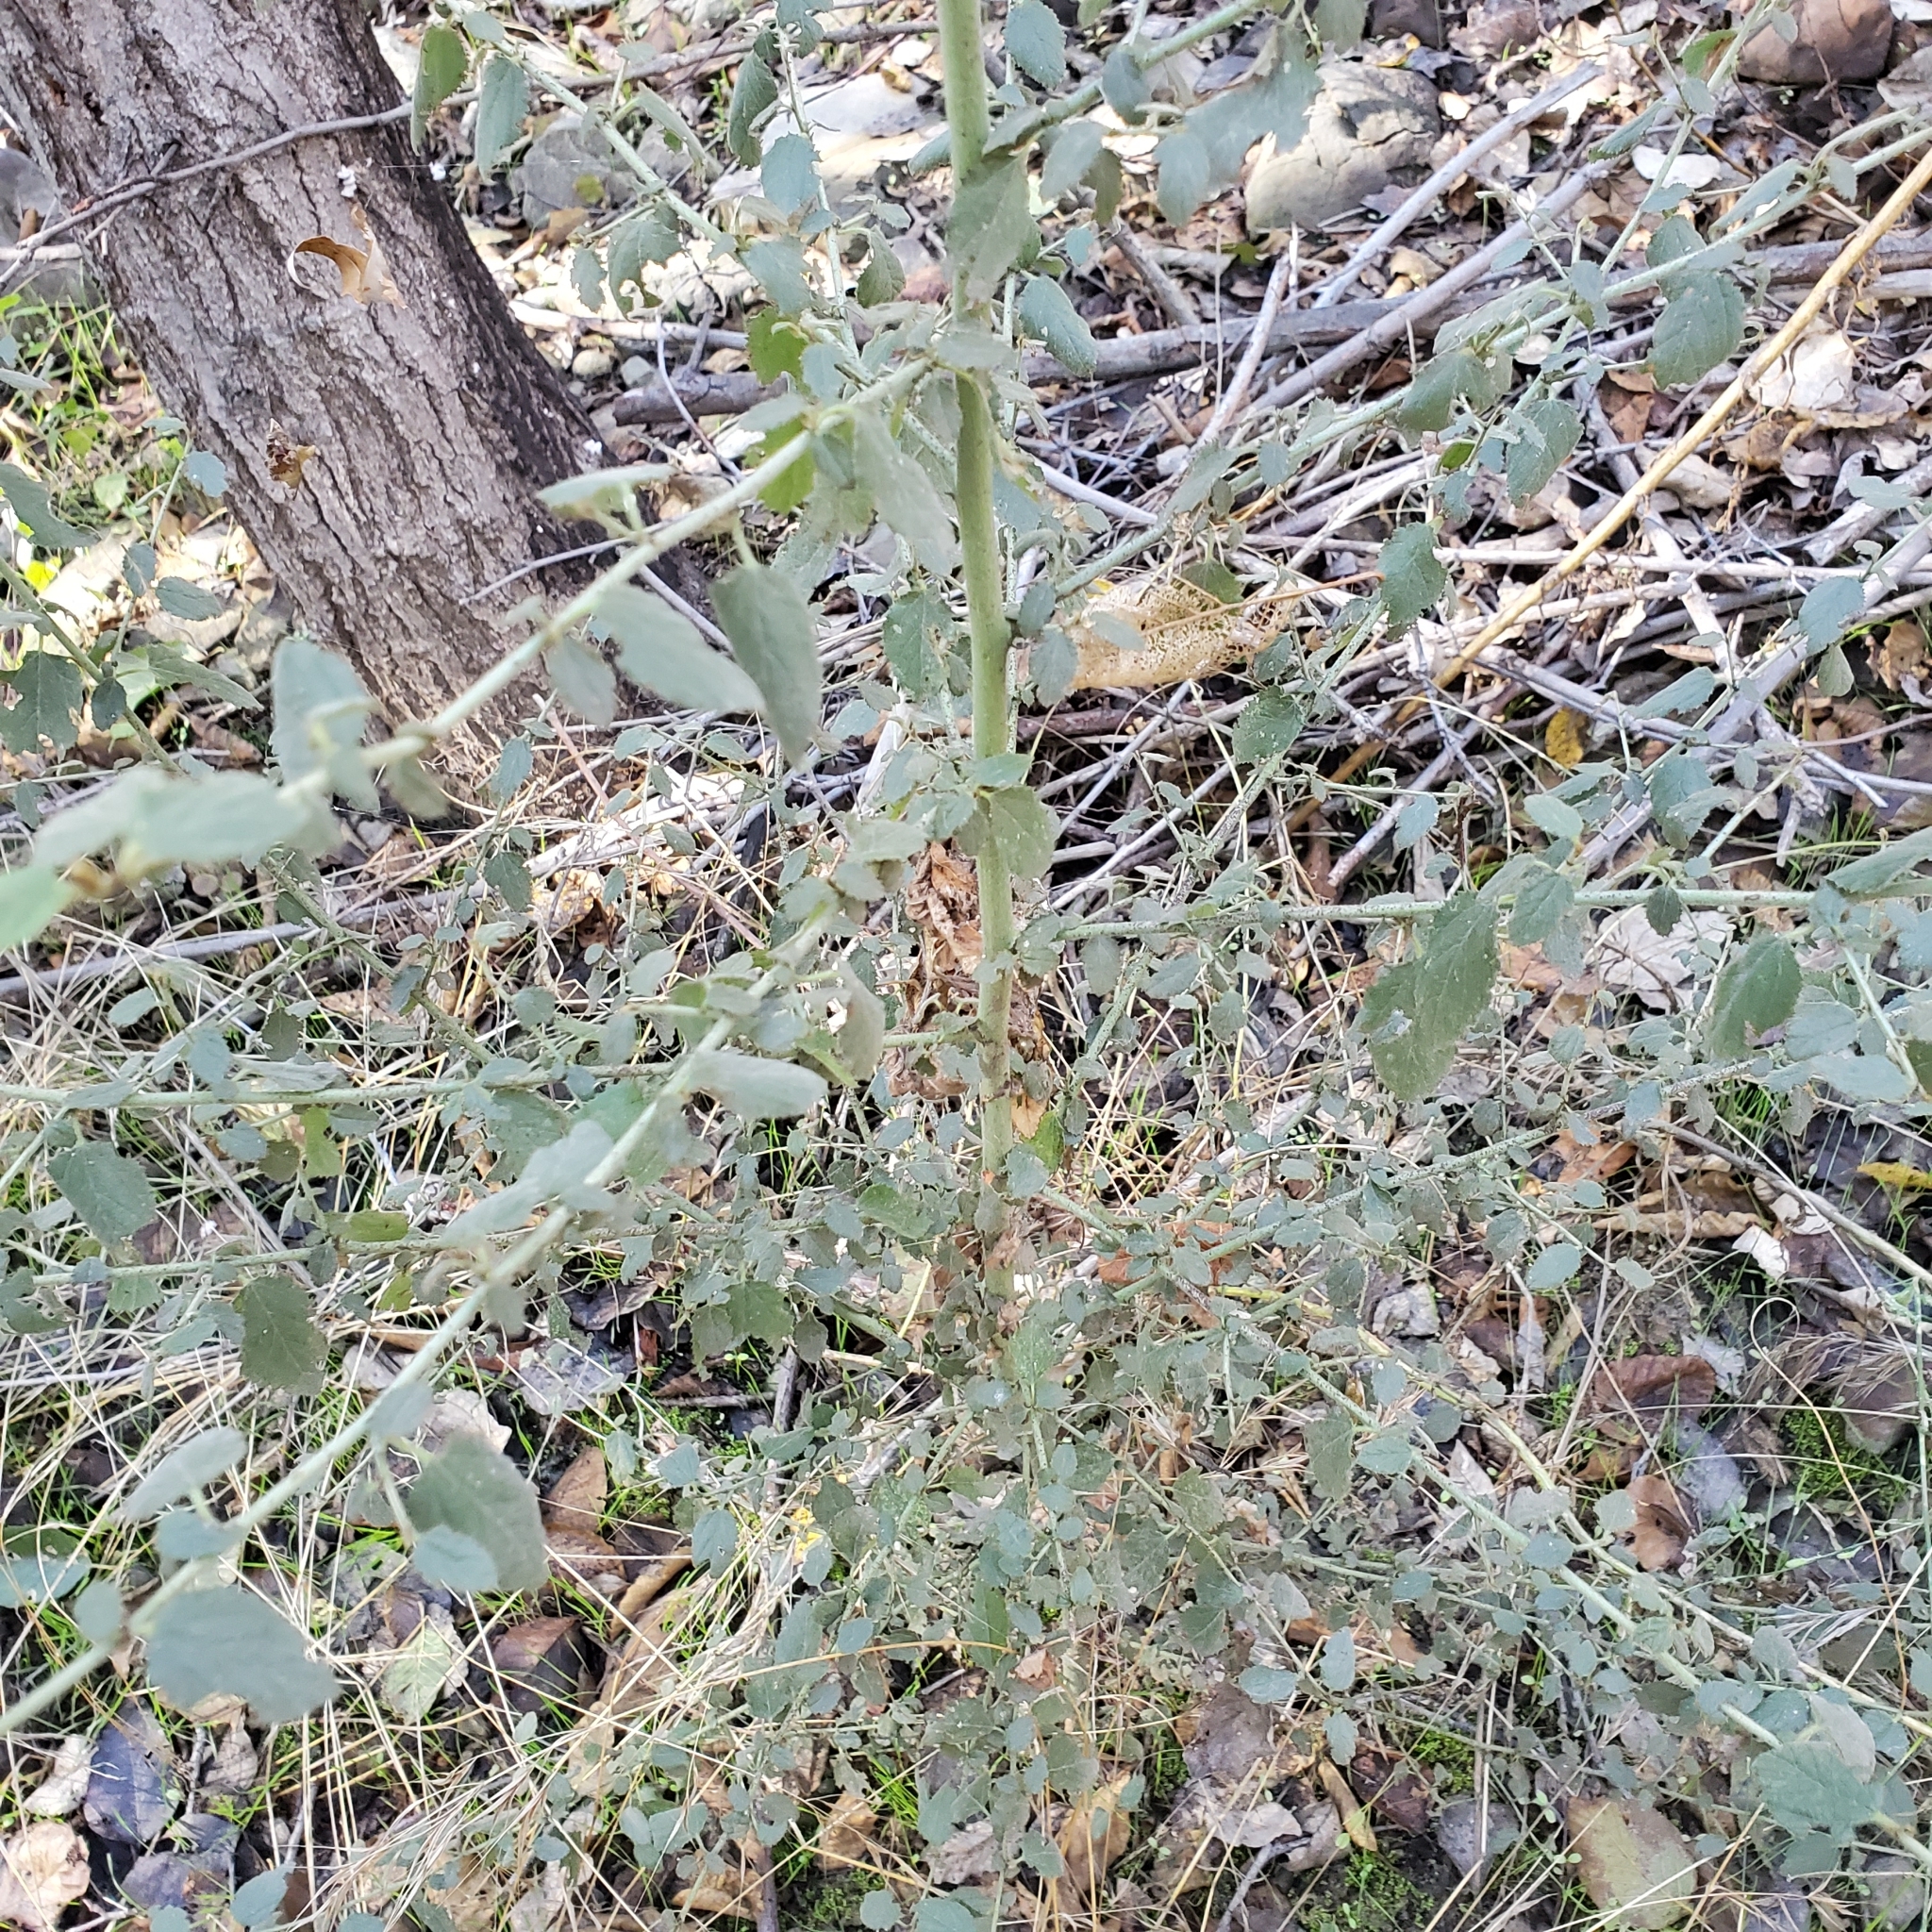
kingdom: Plantae
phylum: Tracheophyta
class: Magnoliopsida
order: Rosales
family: Rhamnaceae
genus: Ceanothus
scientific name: Ceanothus spinosus
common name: Greenbark whitethorn
